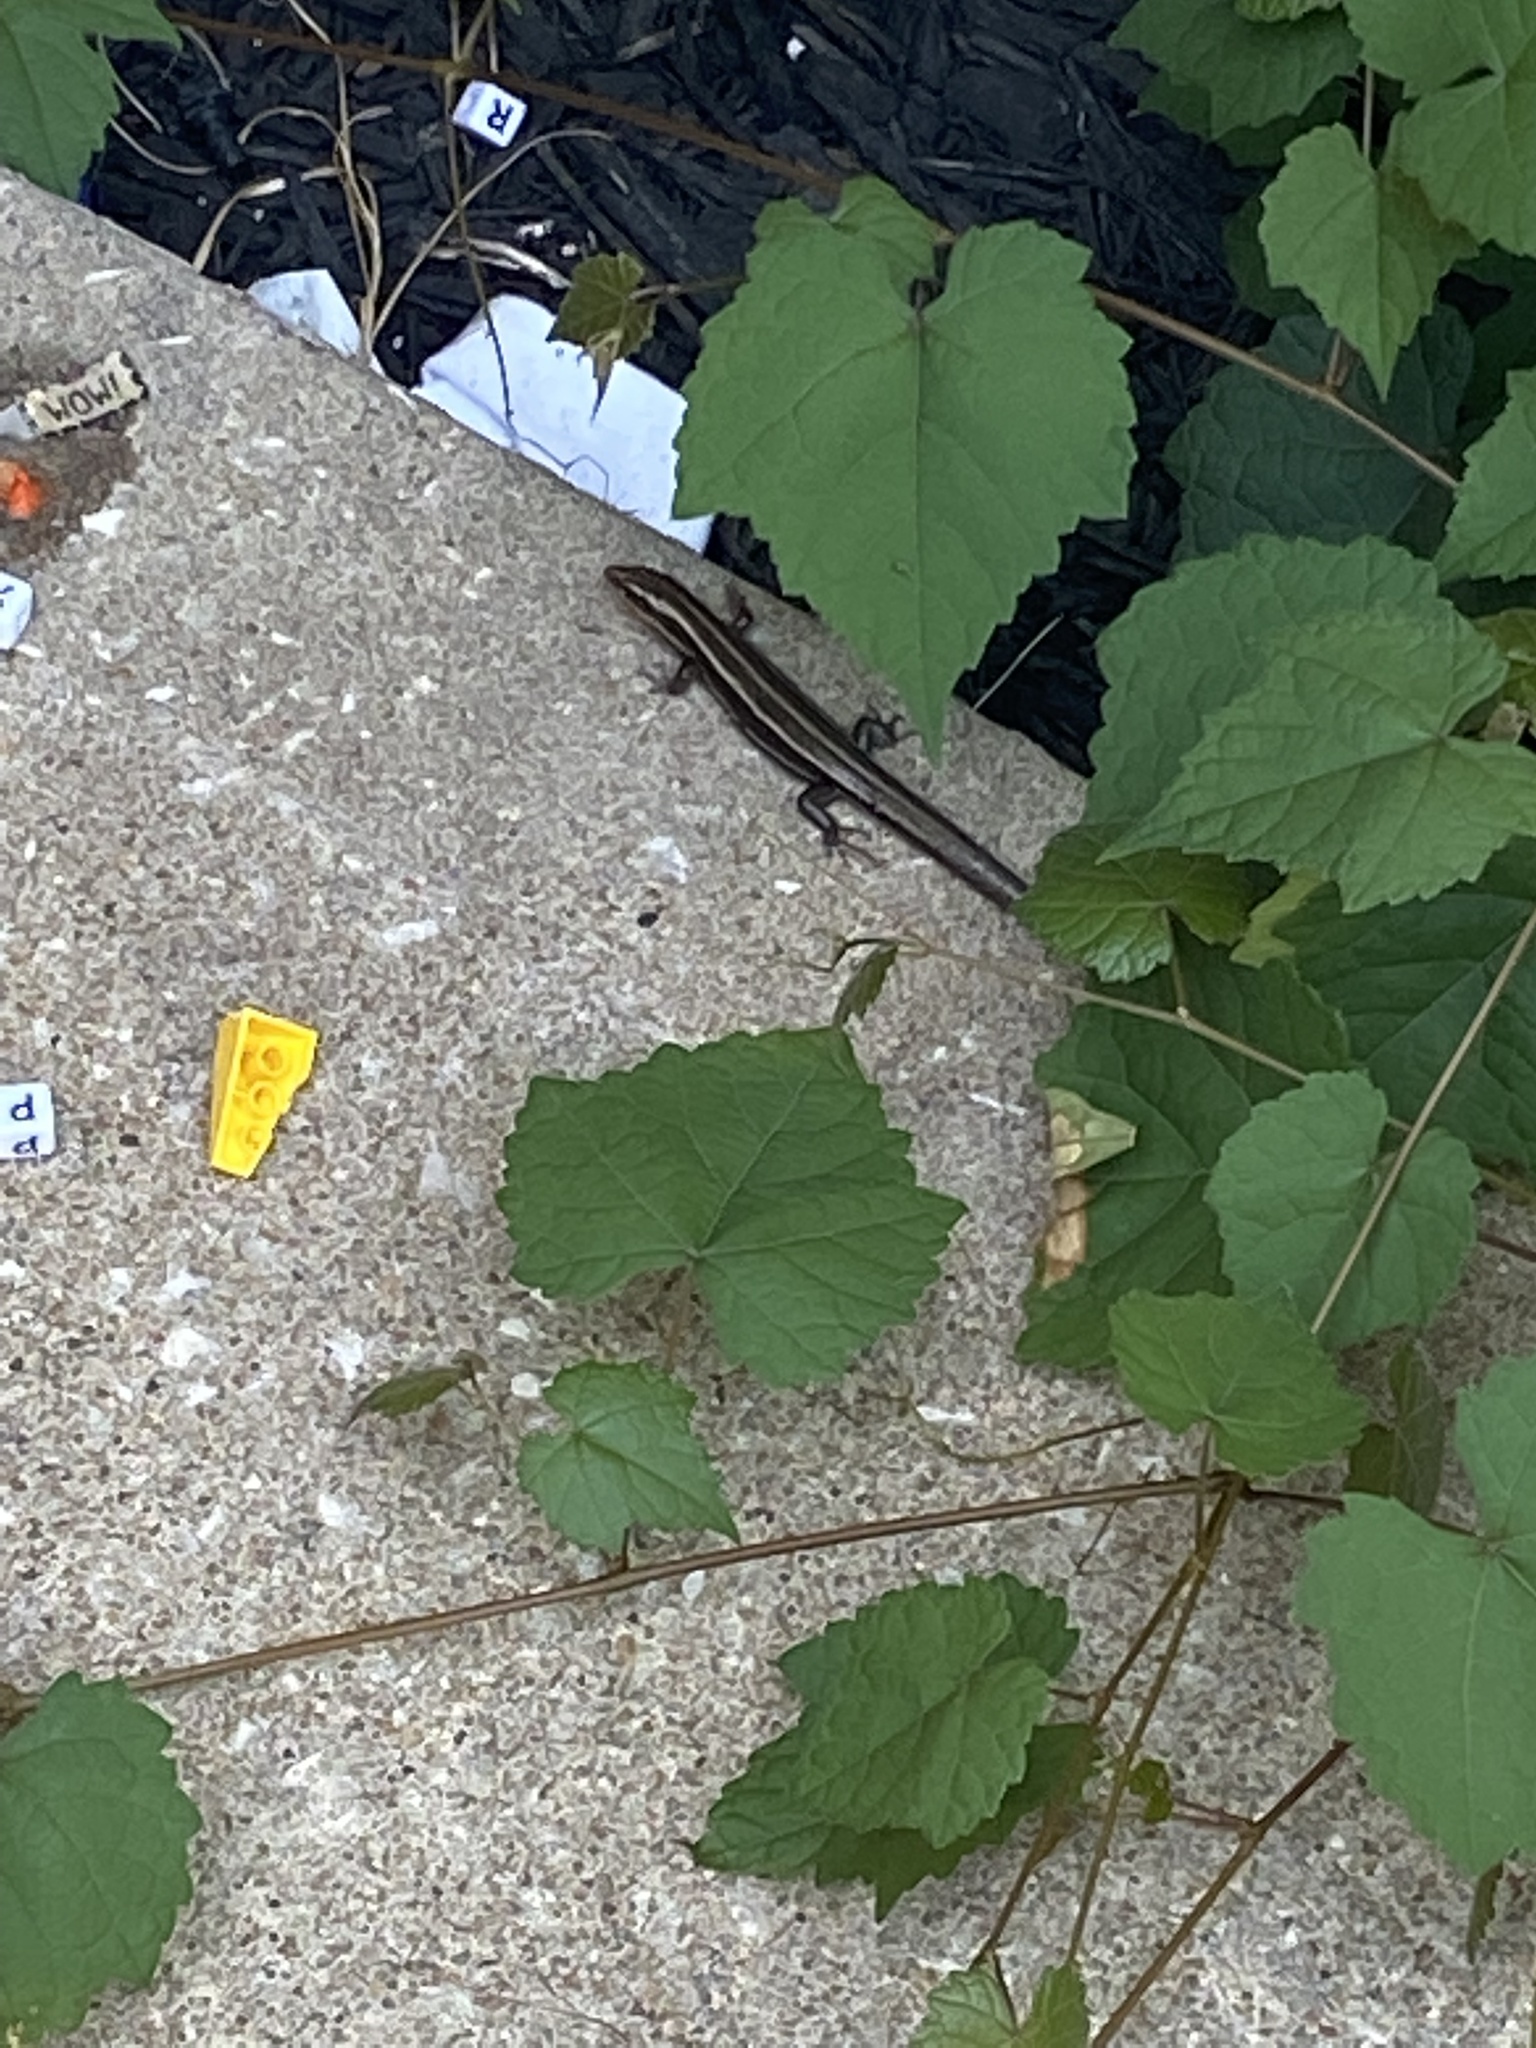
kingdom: Animalia
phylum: Chordata
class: Squamata
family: Scincidae
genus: Plestiodon
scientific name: Plestiodon fasciatus
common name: Five-lined skink
